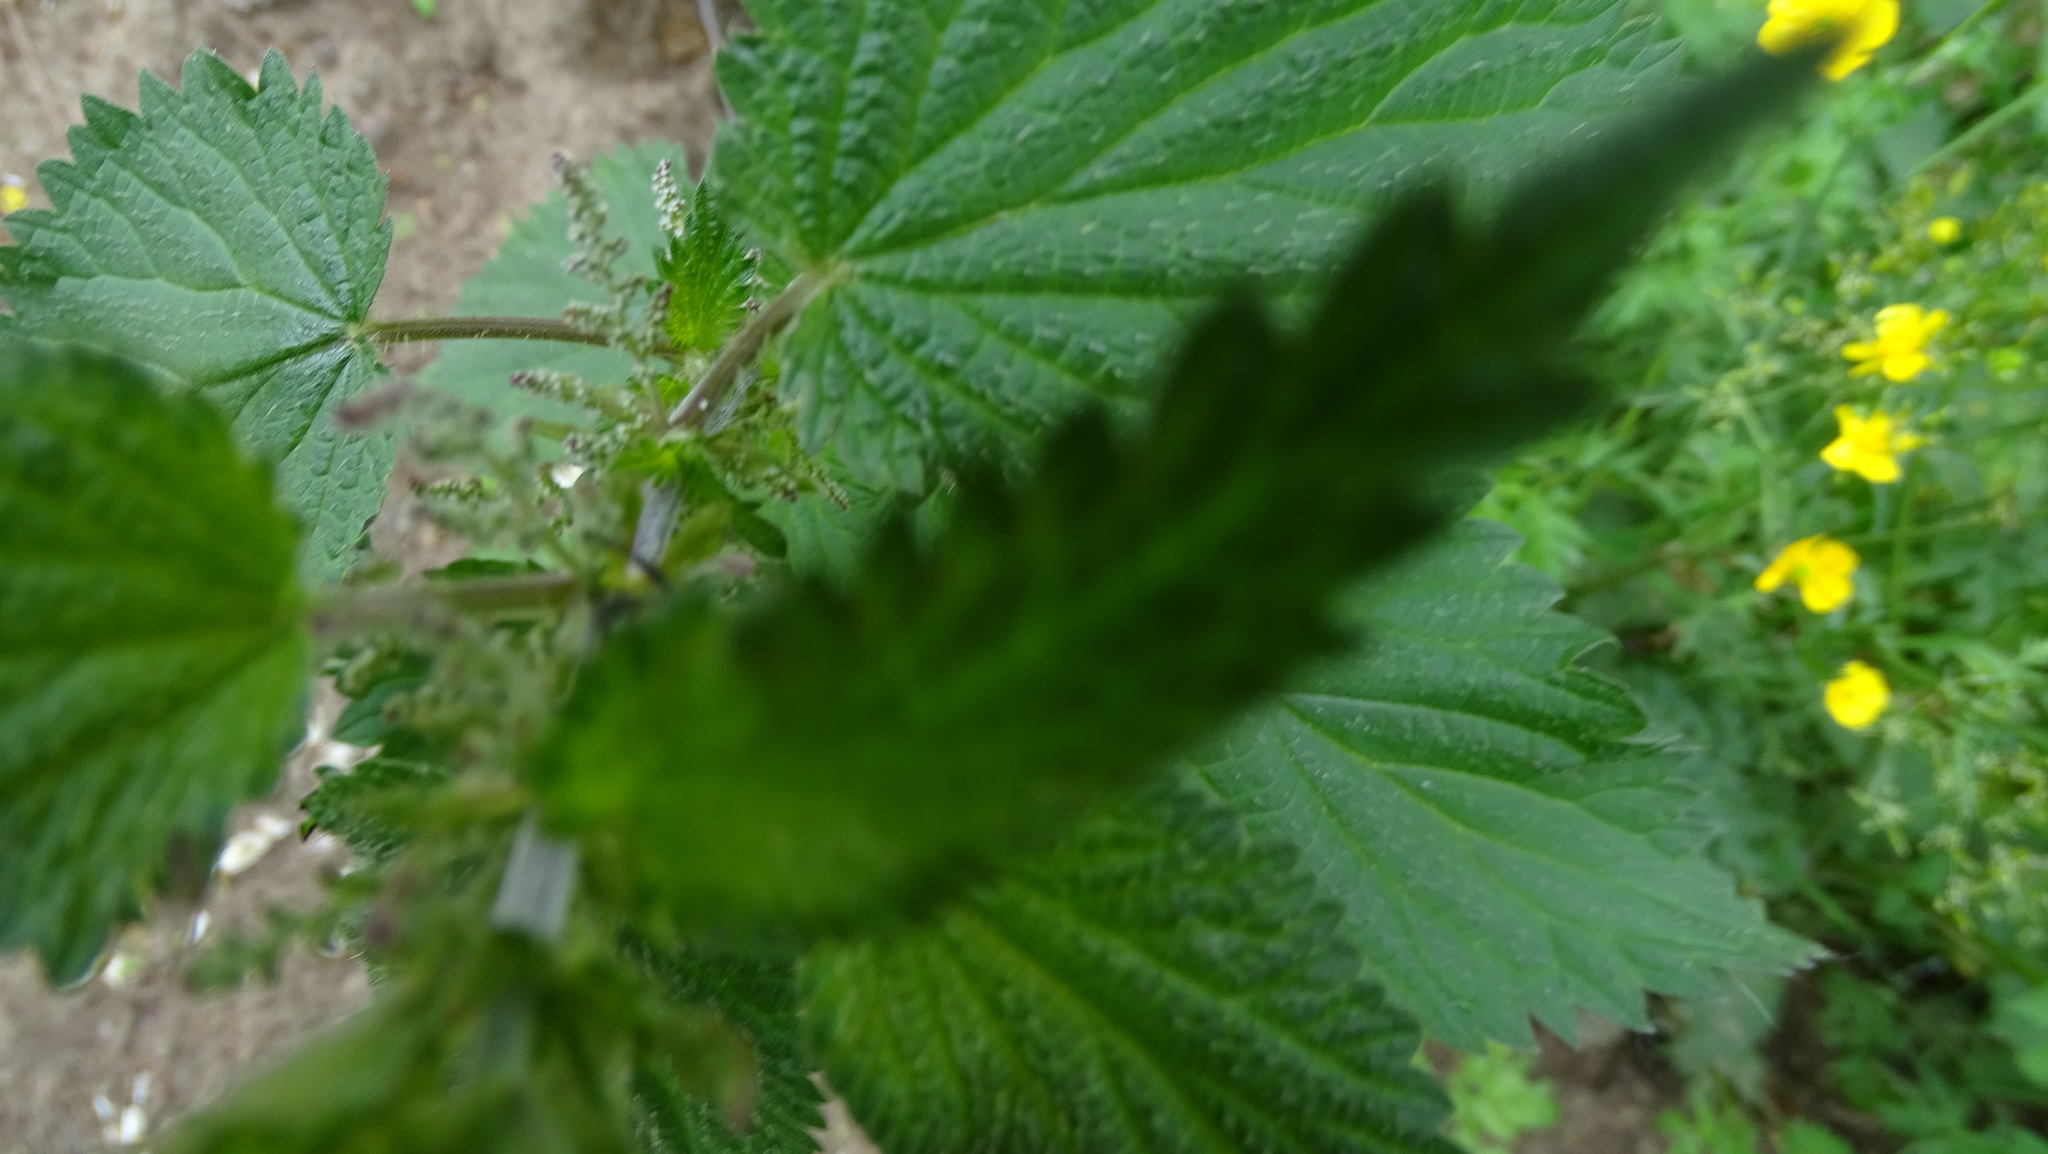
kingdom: Plantae
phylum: Tracheophyta
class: Magnoliopsida
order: Apiales
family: Apiaceae
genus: Heracleum
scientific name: Heracleum mantegazzianum
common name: Giant hogweed
